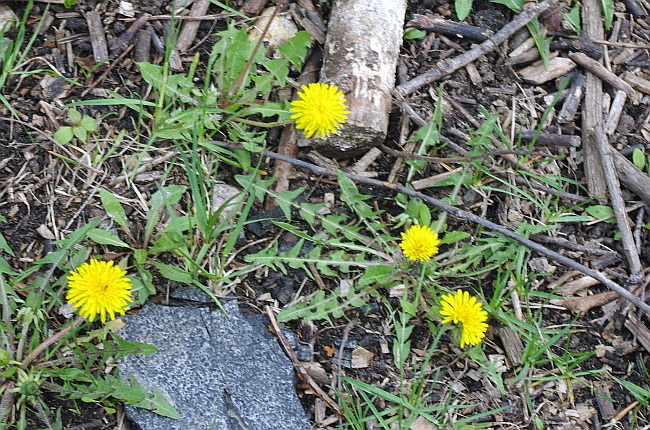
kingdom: Plantae
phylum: Tracheophyta
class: Magnoliopsida
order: Asterales
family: Asteraceae
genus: Taraxacum
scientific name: Taraxacum officinale
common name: Common dandelion
